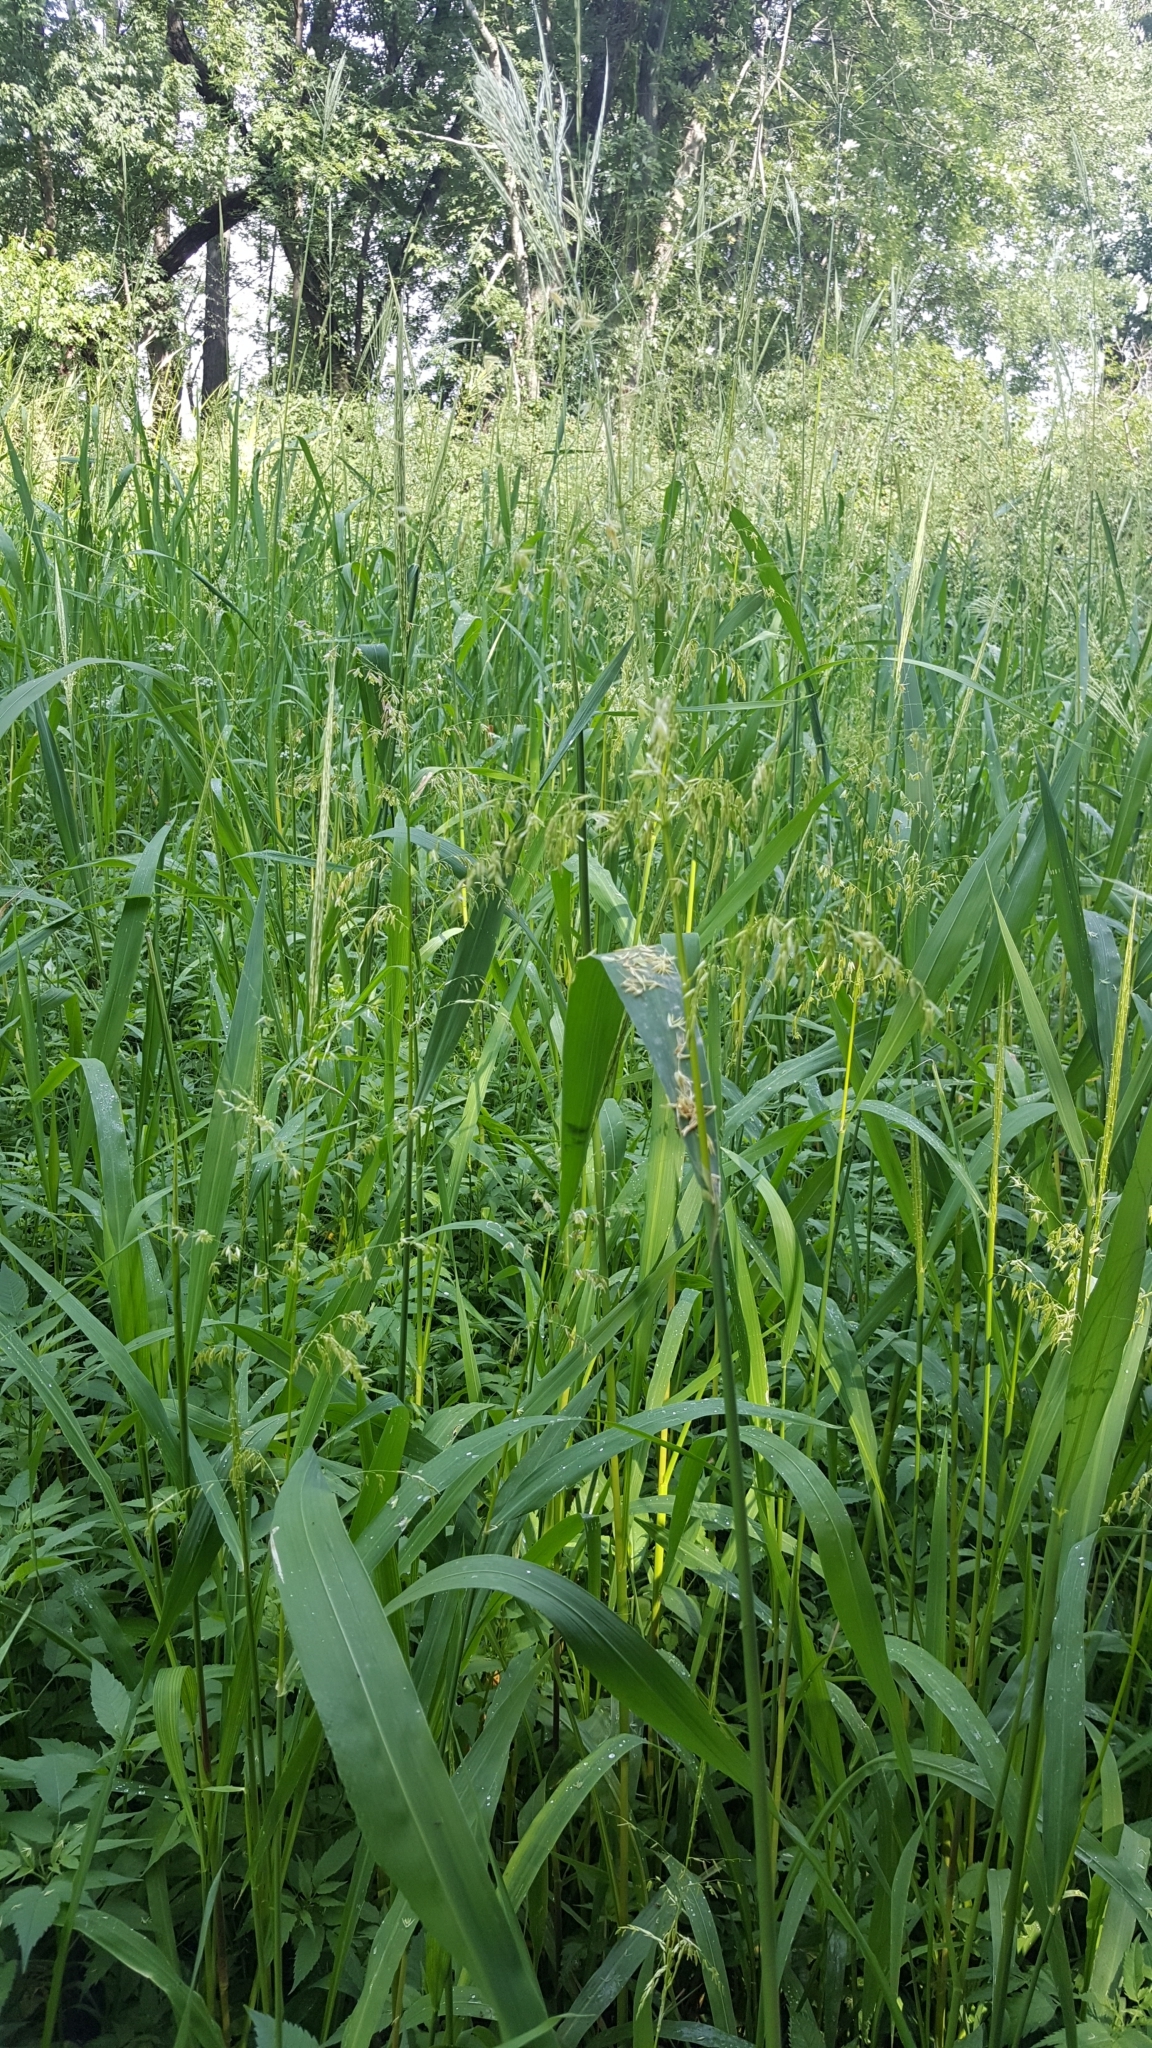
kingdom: Plantae
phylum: Tracheophyta
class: Liliopsida
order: Poales
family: Poaceae
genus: Zizania
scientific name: Zizania aquatica
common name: Annual wildrice
